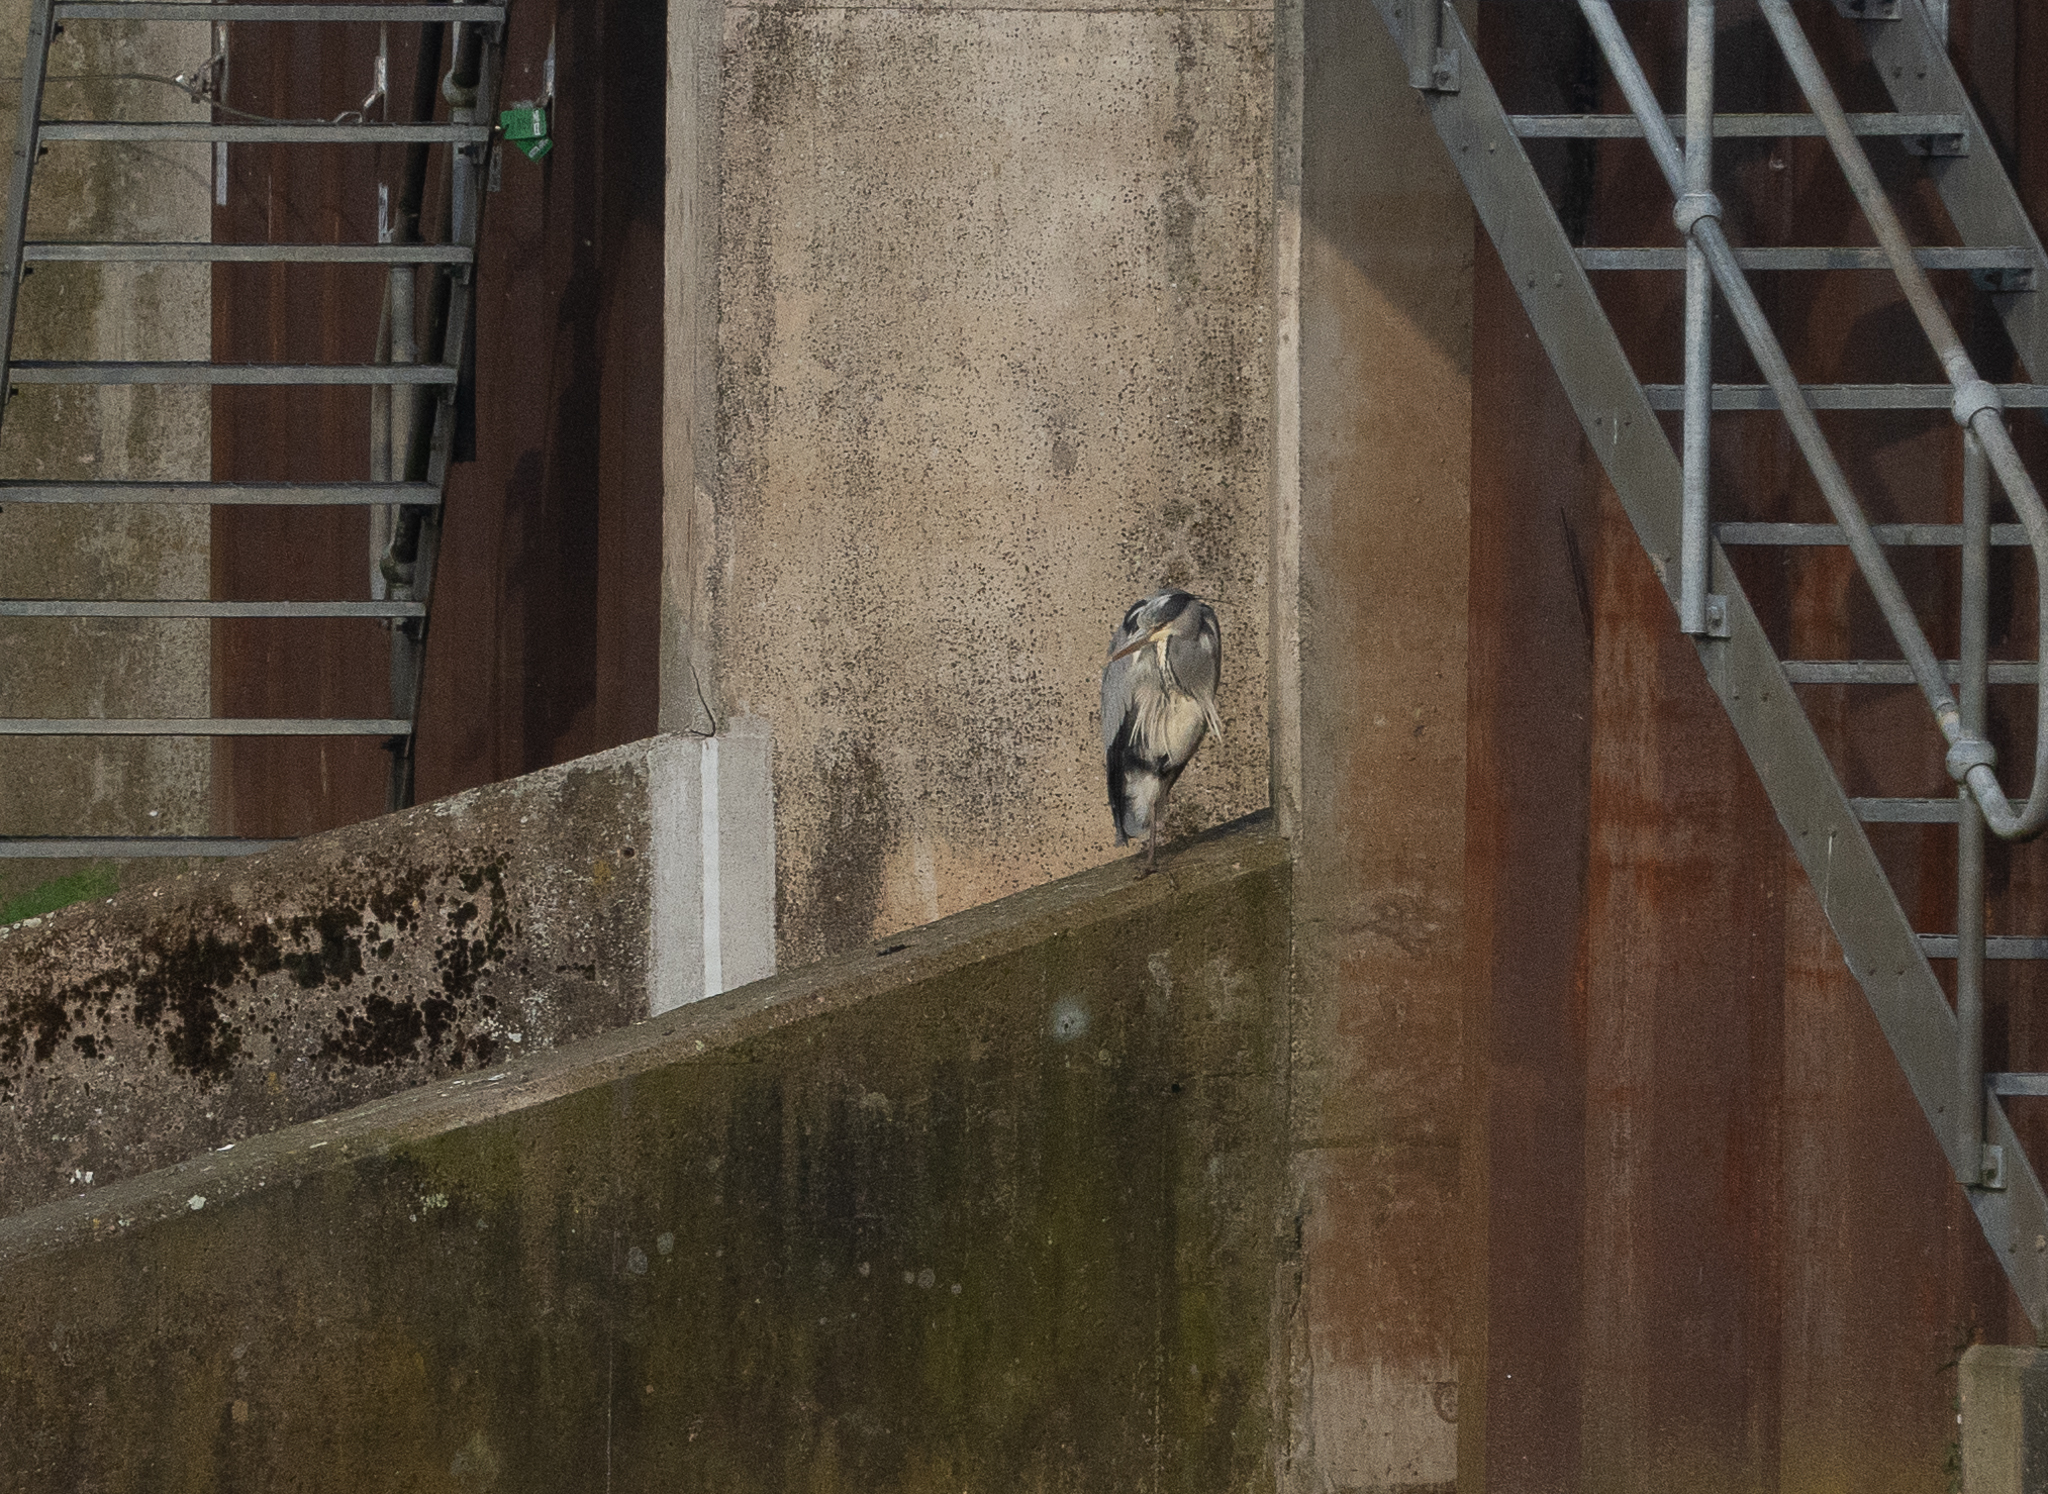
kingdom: Animalia
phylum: Chordata
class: Aves
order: Pelecaniformes
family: Ardeidae
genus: Ardea
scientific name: Ardea cinerea
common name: Grey heron
